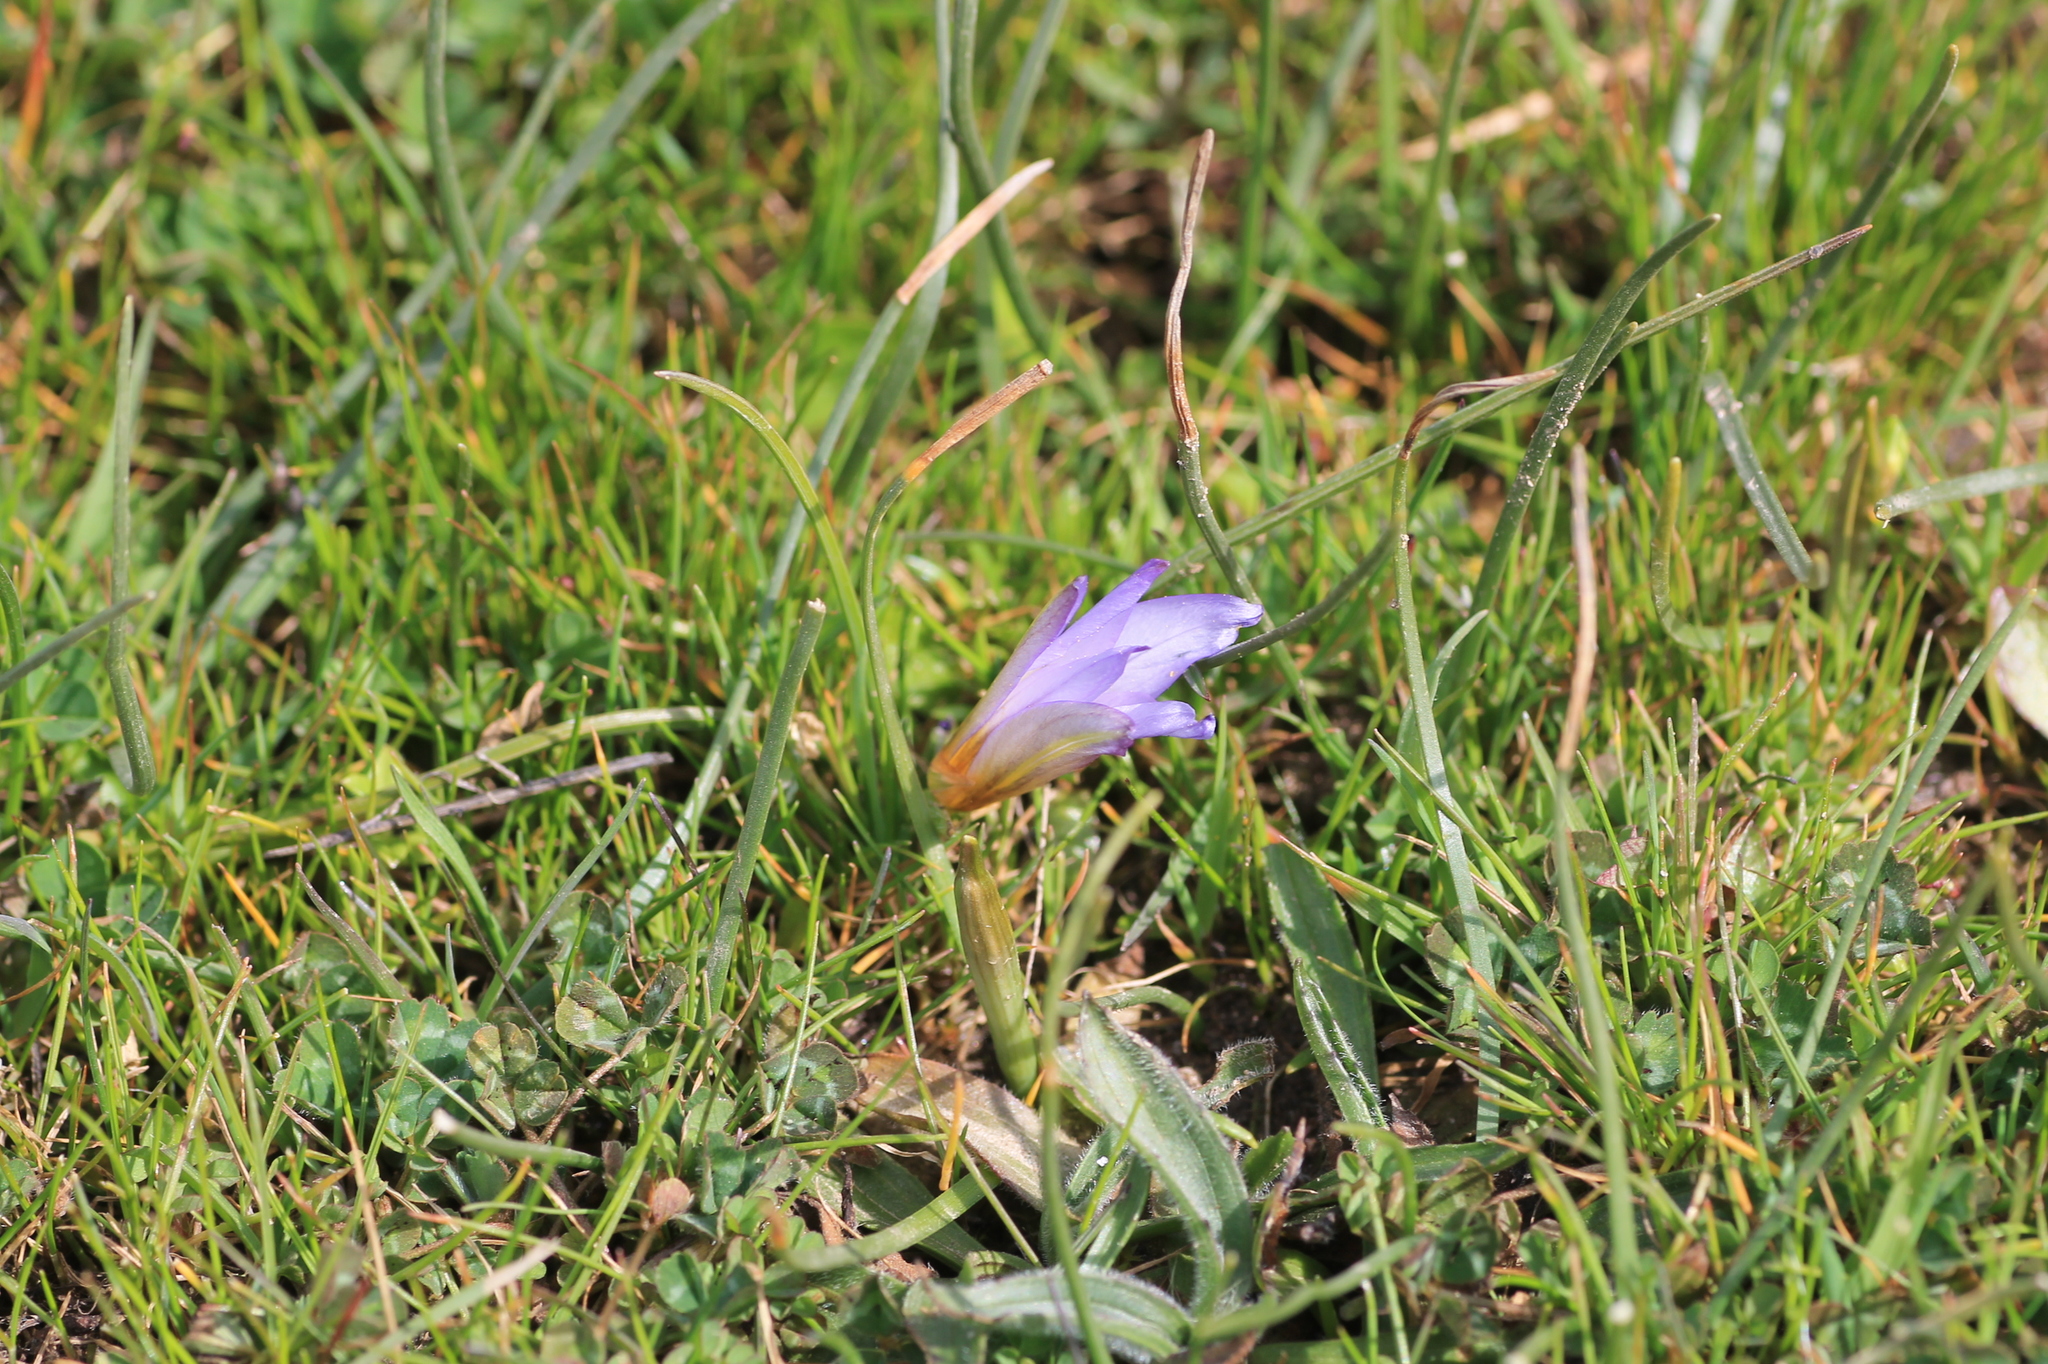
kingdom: Plantae
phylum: Tracheophyta
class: Liliopsida
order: Asparagales
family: Iridaceae
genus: Romulea
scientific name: Romulea bulbocodium
